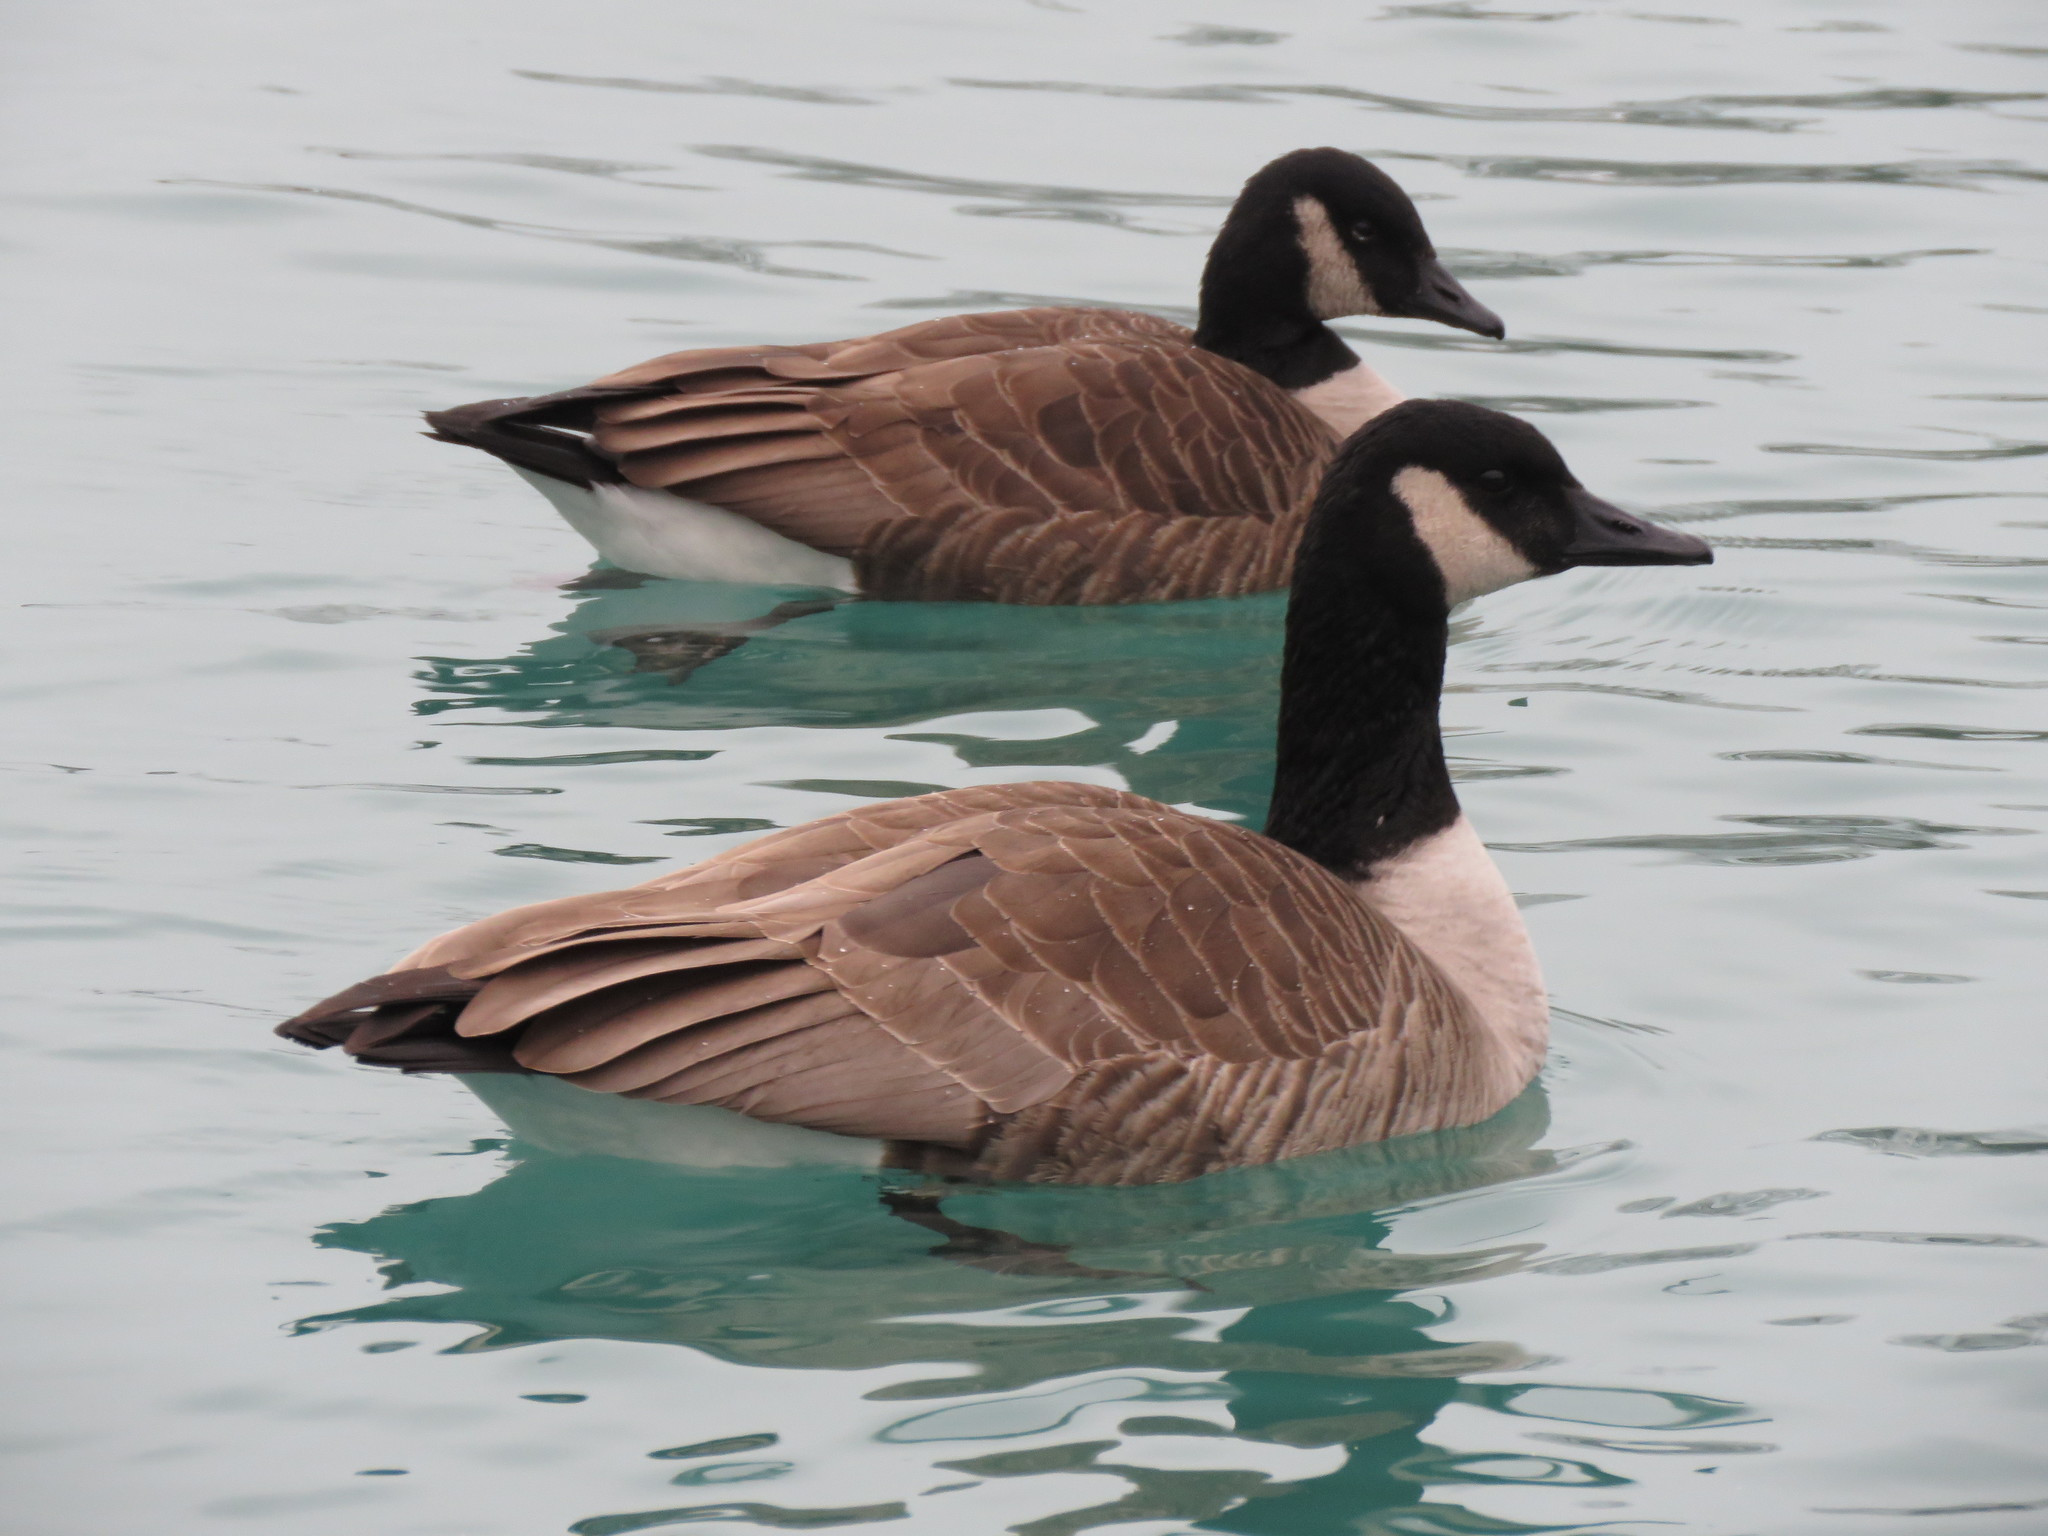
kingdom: Animalia
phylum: Chordata
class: Aves
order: Anseriformes
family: Anatidae
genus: Branta
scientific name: Branta canadensis
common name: Canada goose
